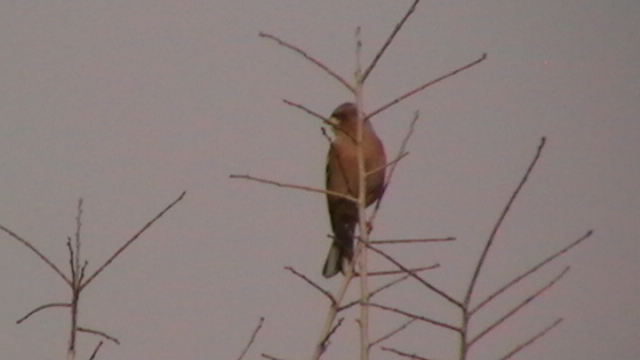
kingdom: Animalia
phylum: Chordata
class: Aves
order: Passeriformes
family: Fringillidae
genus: Fringilla
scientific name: Fringilla coelebs
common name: Common chaffinch
